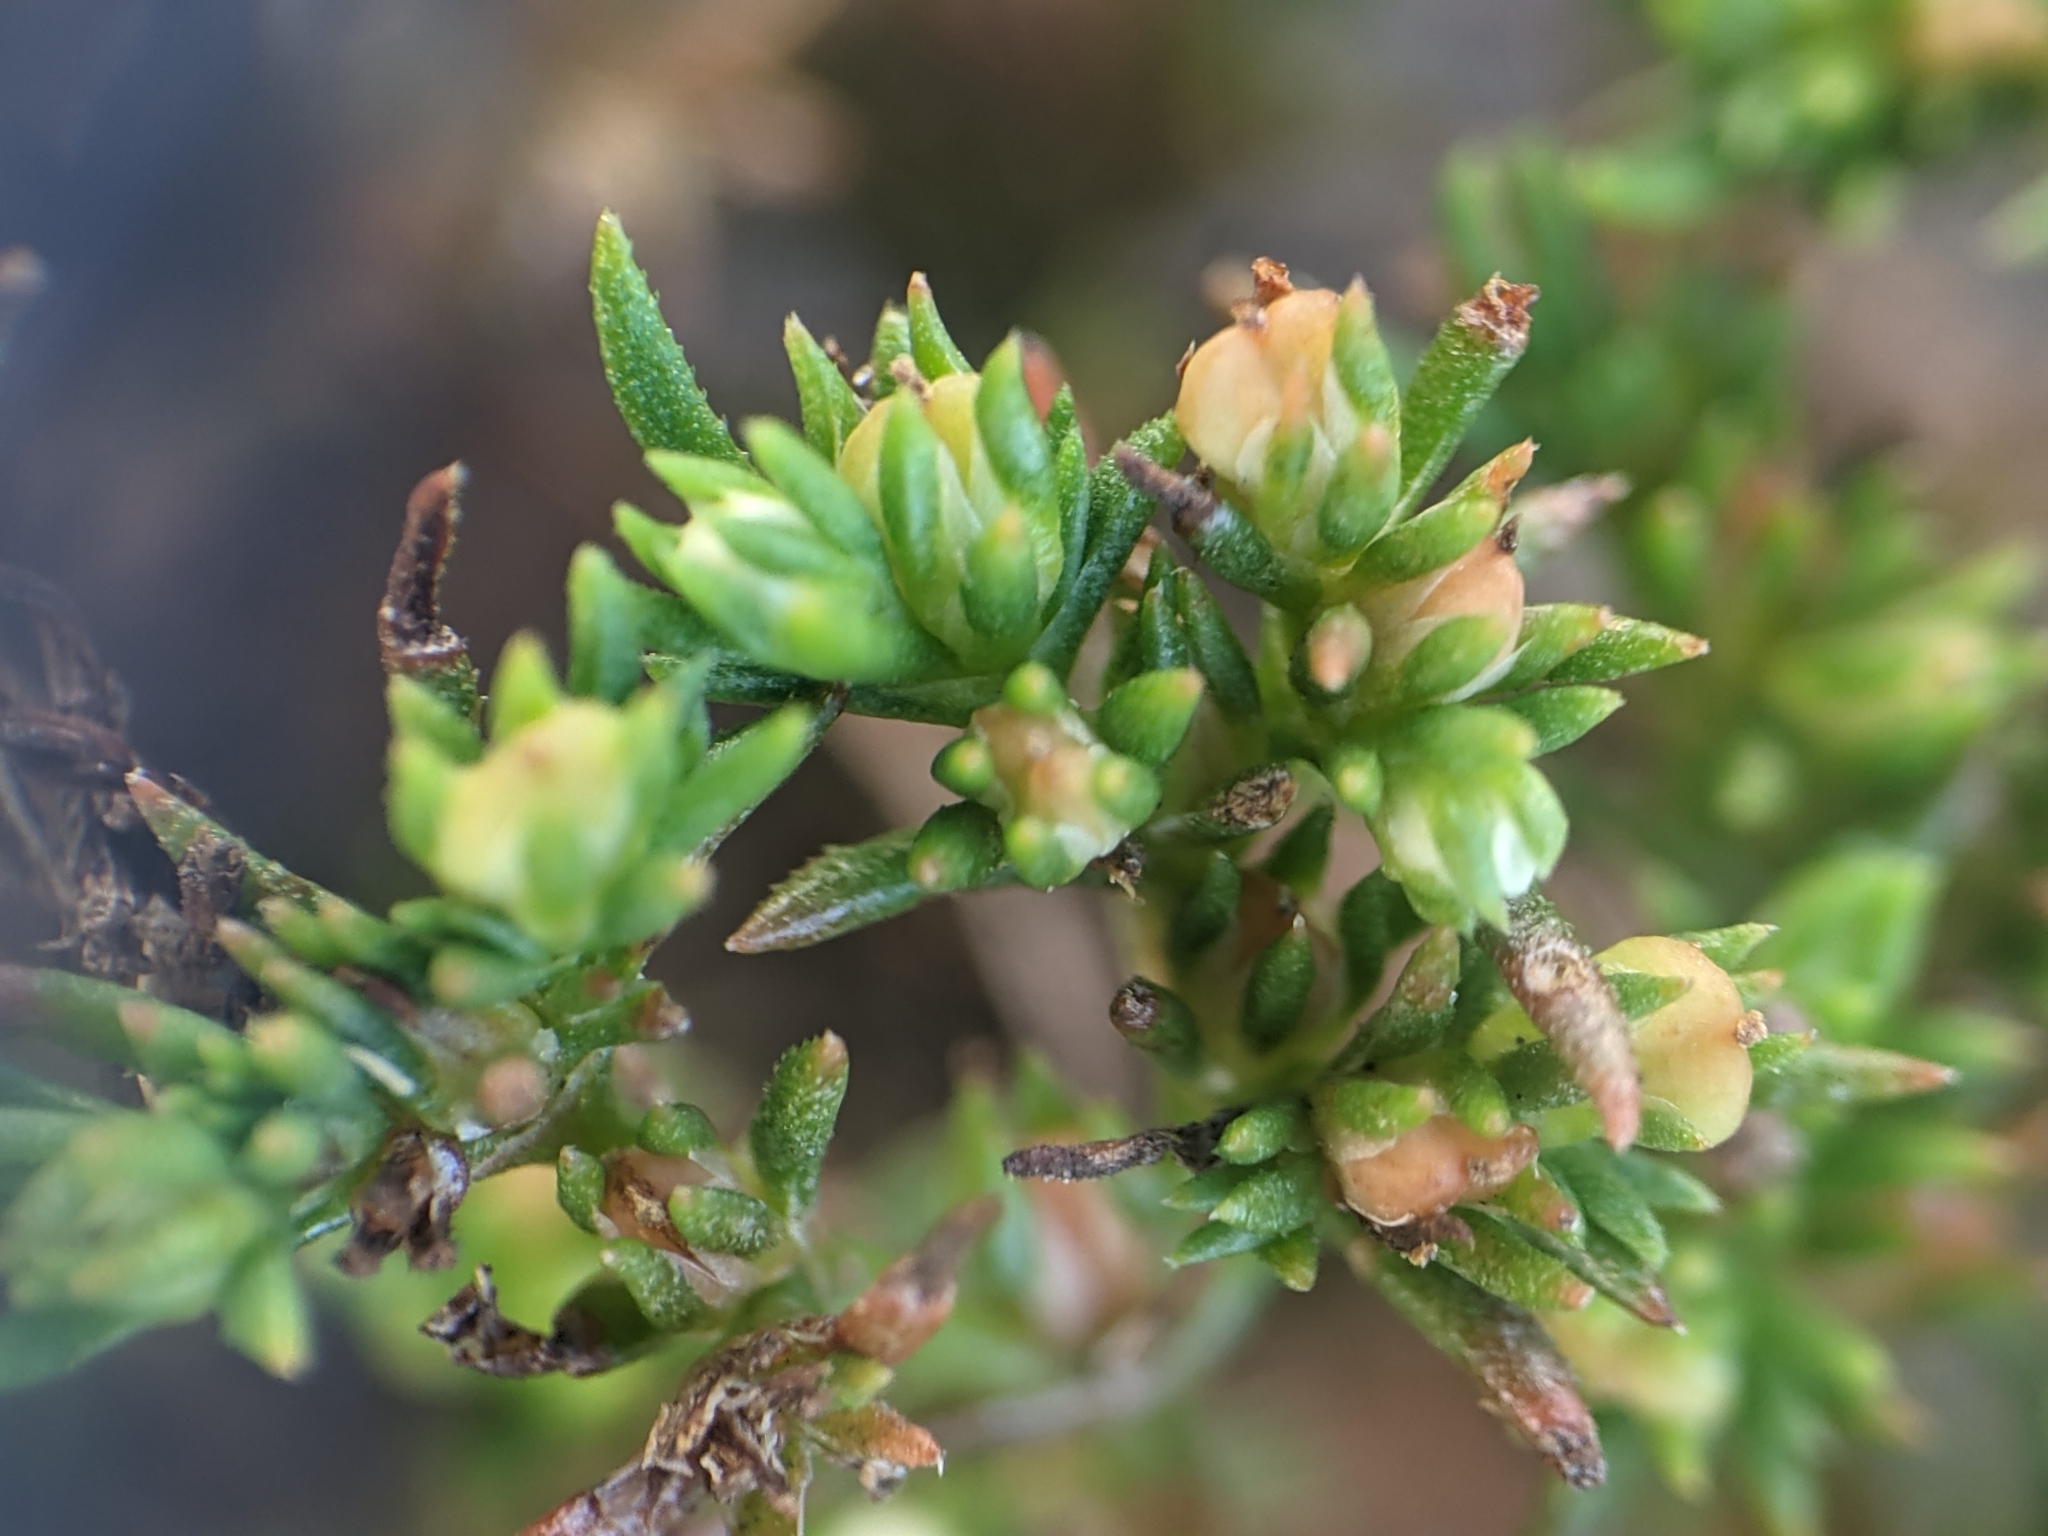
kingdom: Plantae
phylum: Tracheophyta
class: Magnoliopsida
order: Lamiales
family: Tetrachondraceae
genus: Polypremum
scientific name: Polypremum procumbens
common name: Juniper-leaf
